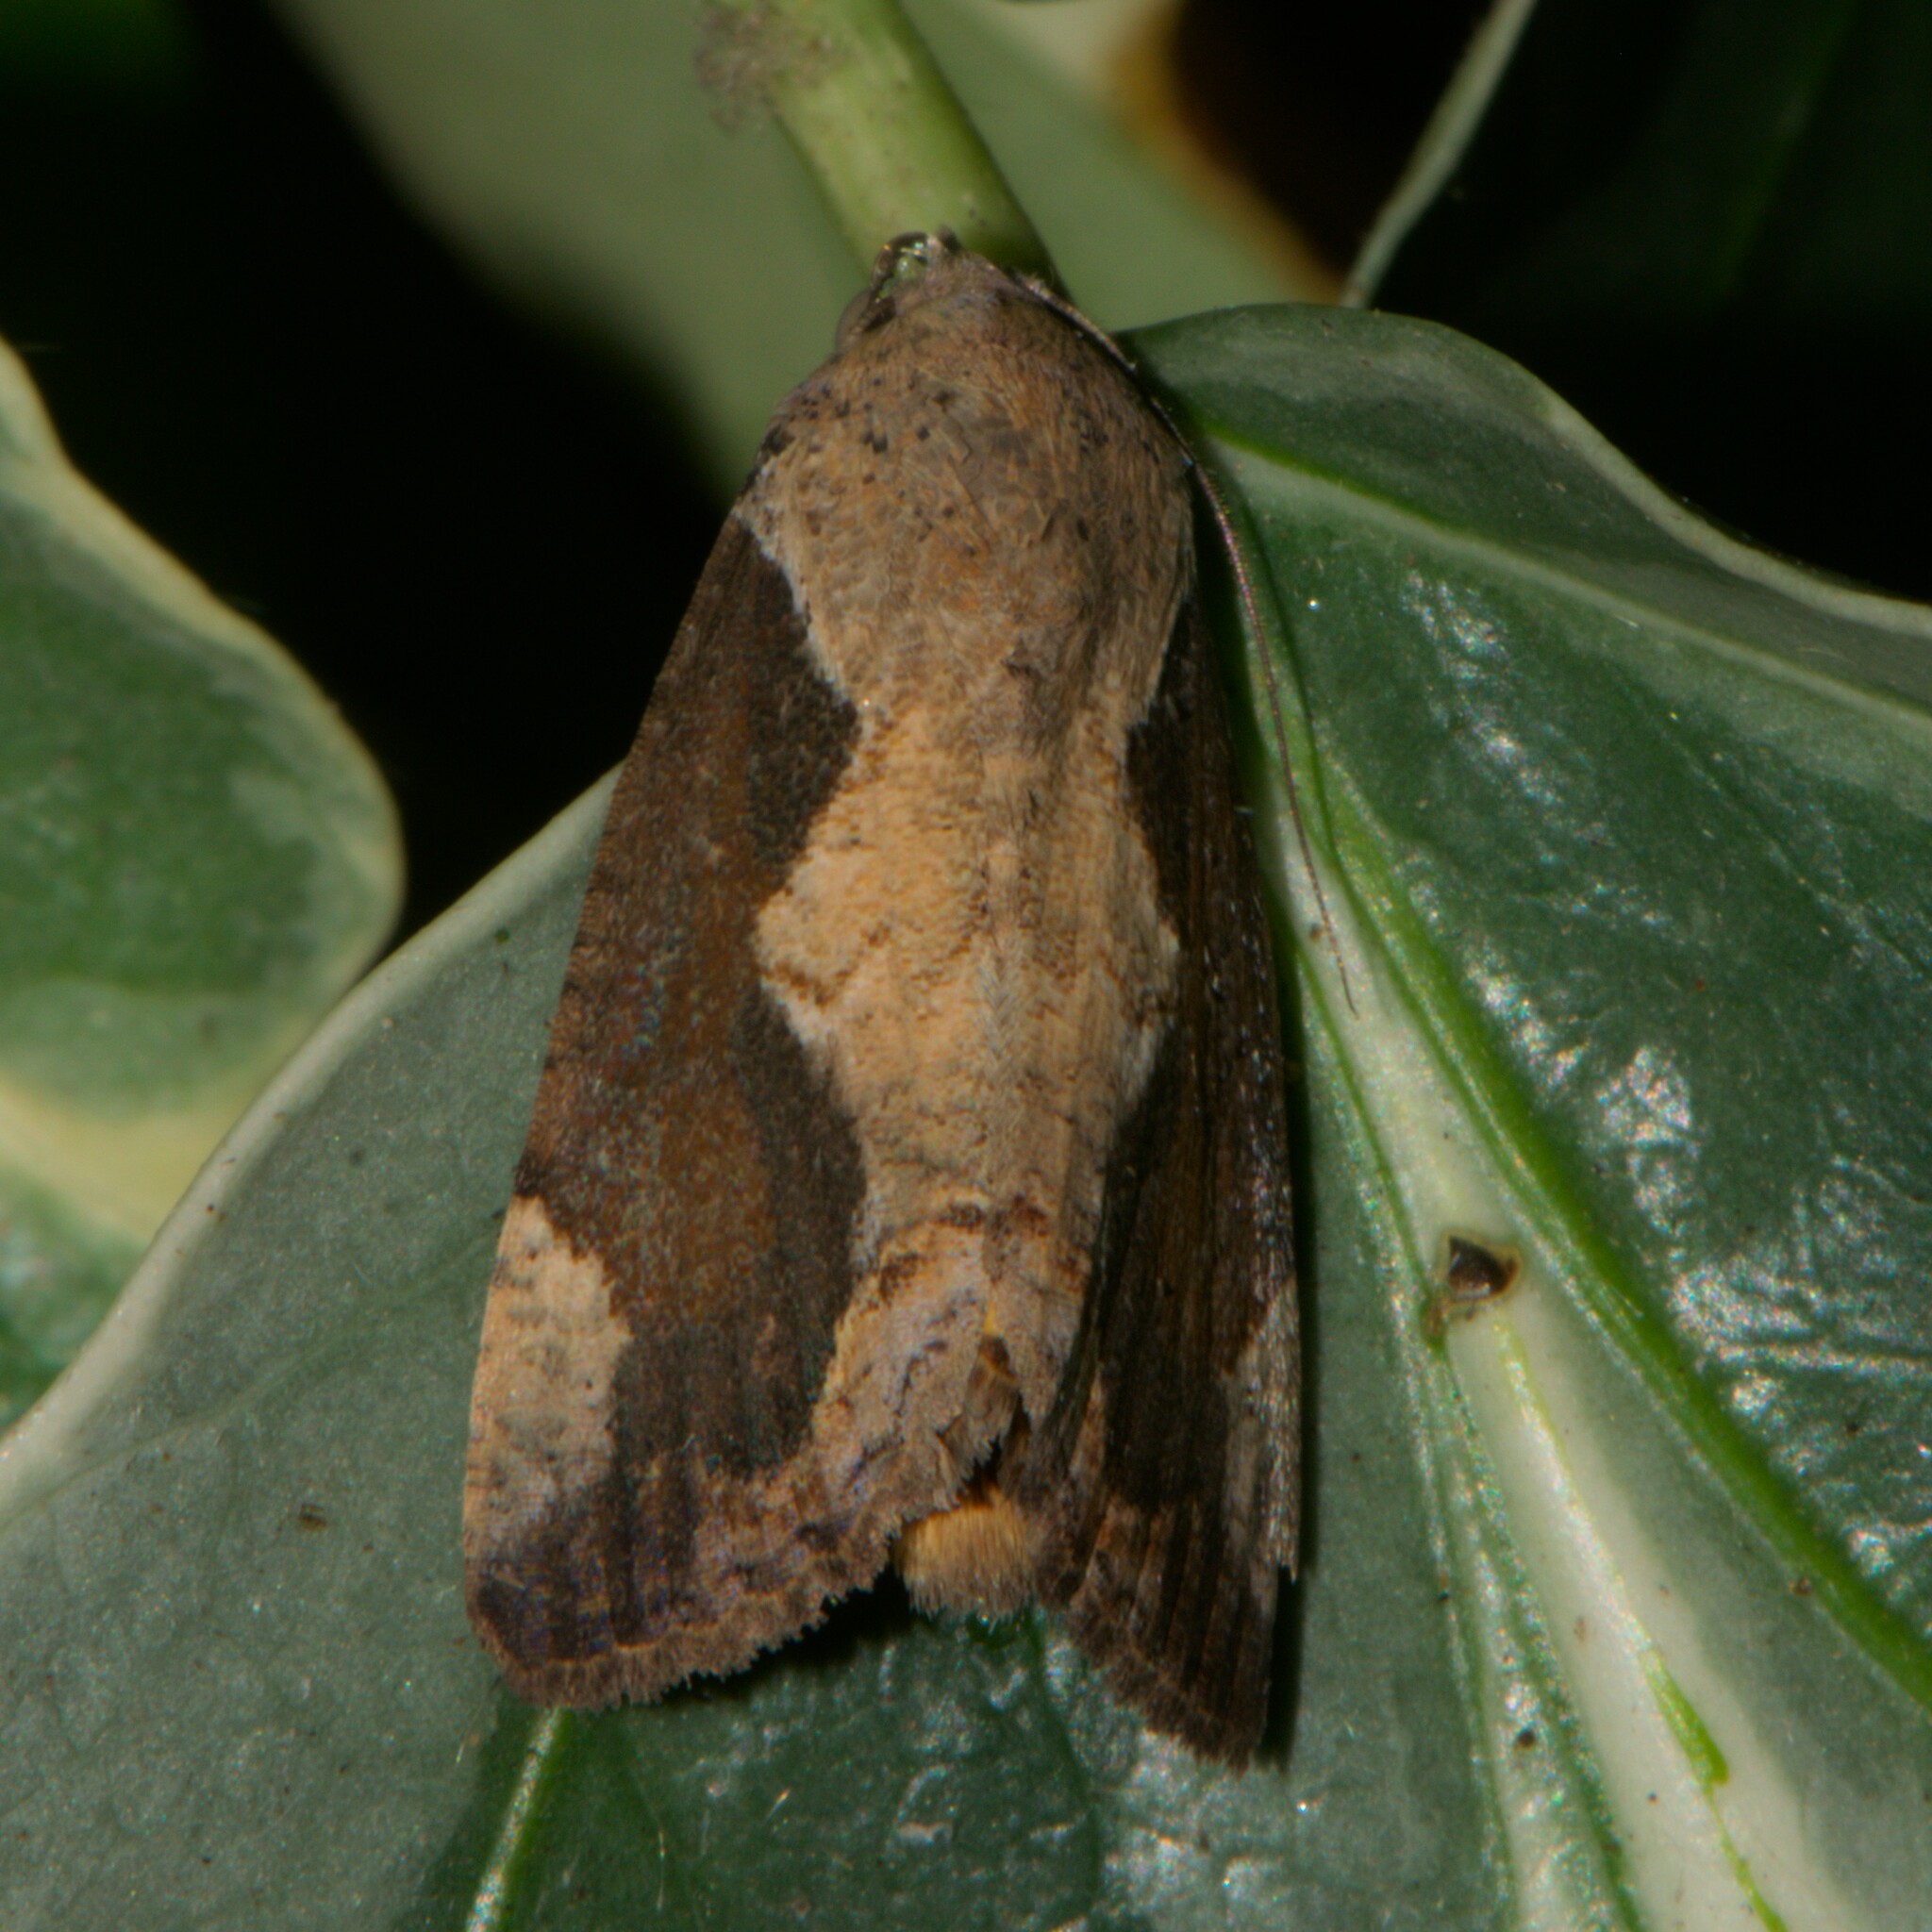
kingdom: Animalia
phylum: Arthropoda
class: Insecta
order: Lepidoptera
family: Erebidae
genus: Hypocala
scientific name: Hypocala subsatura
